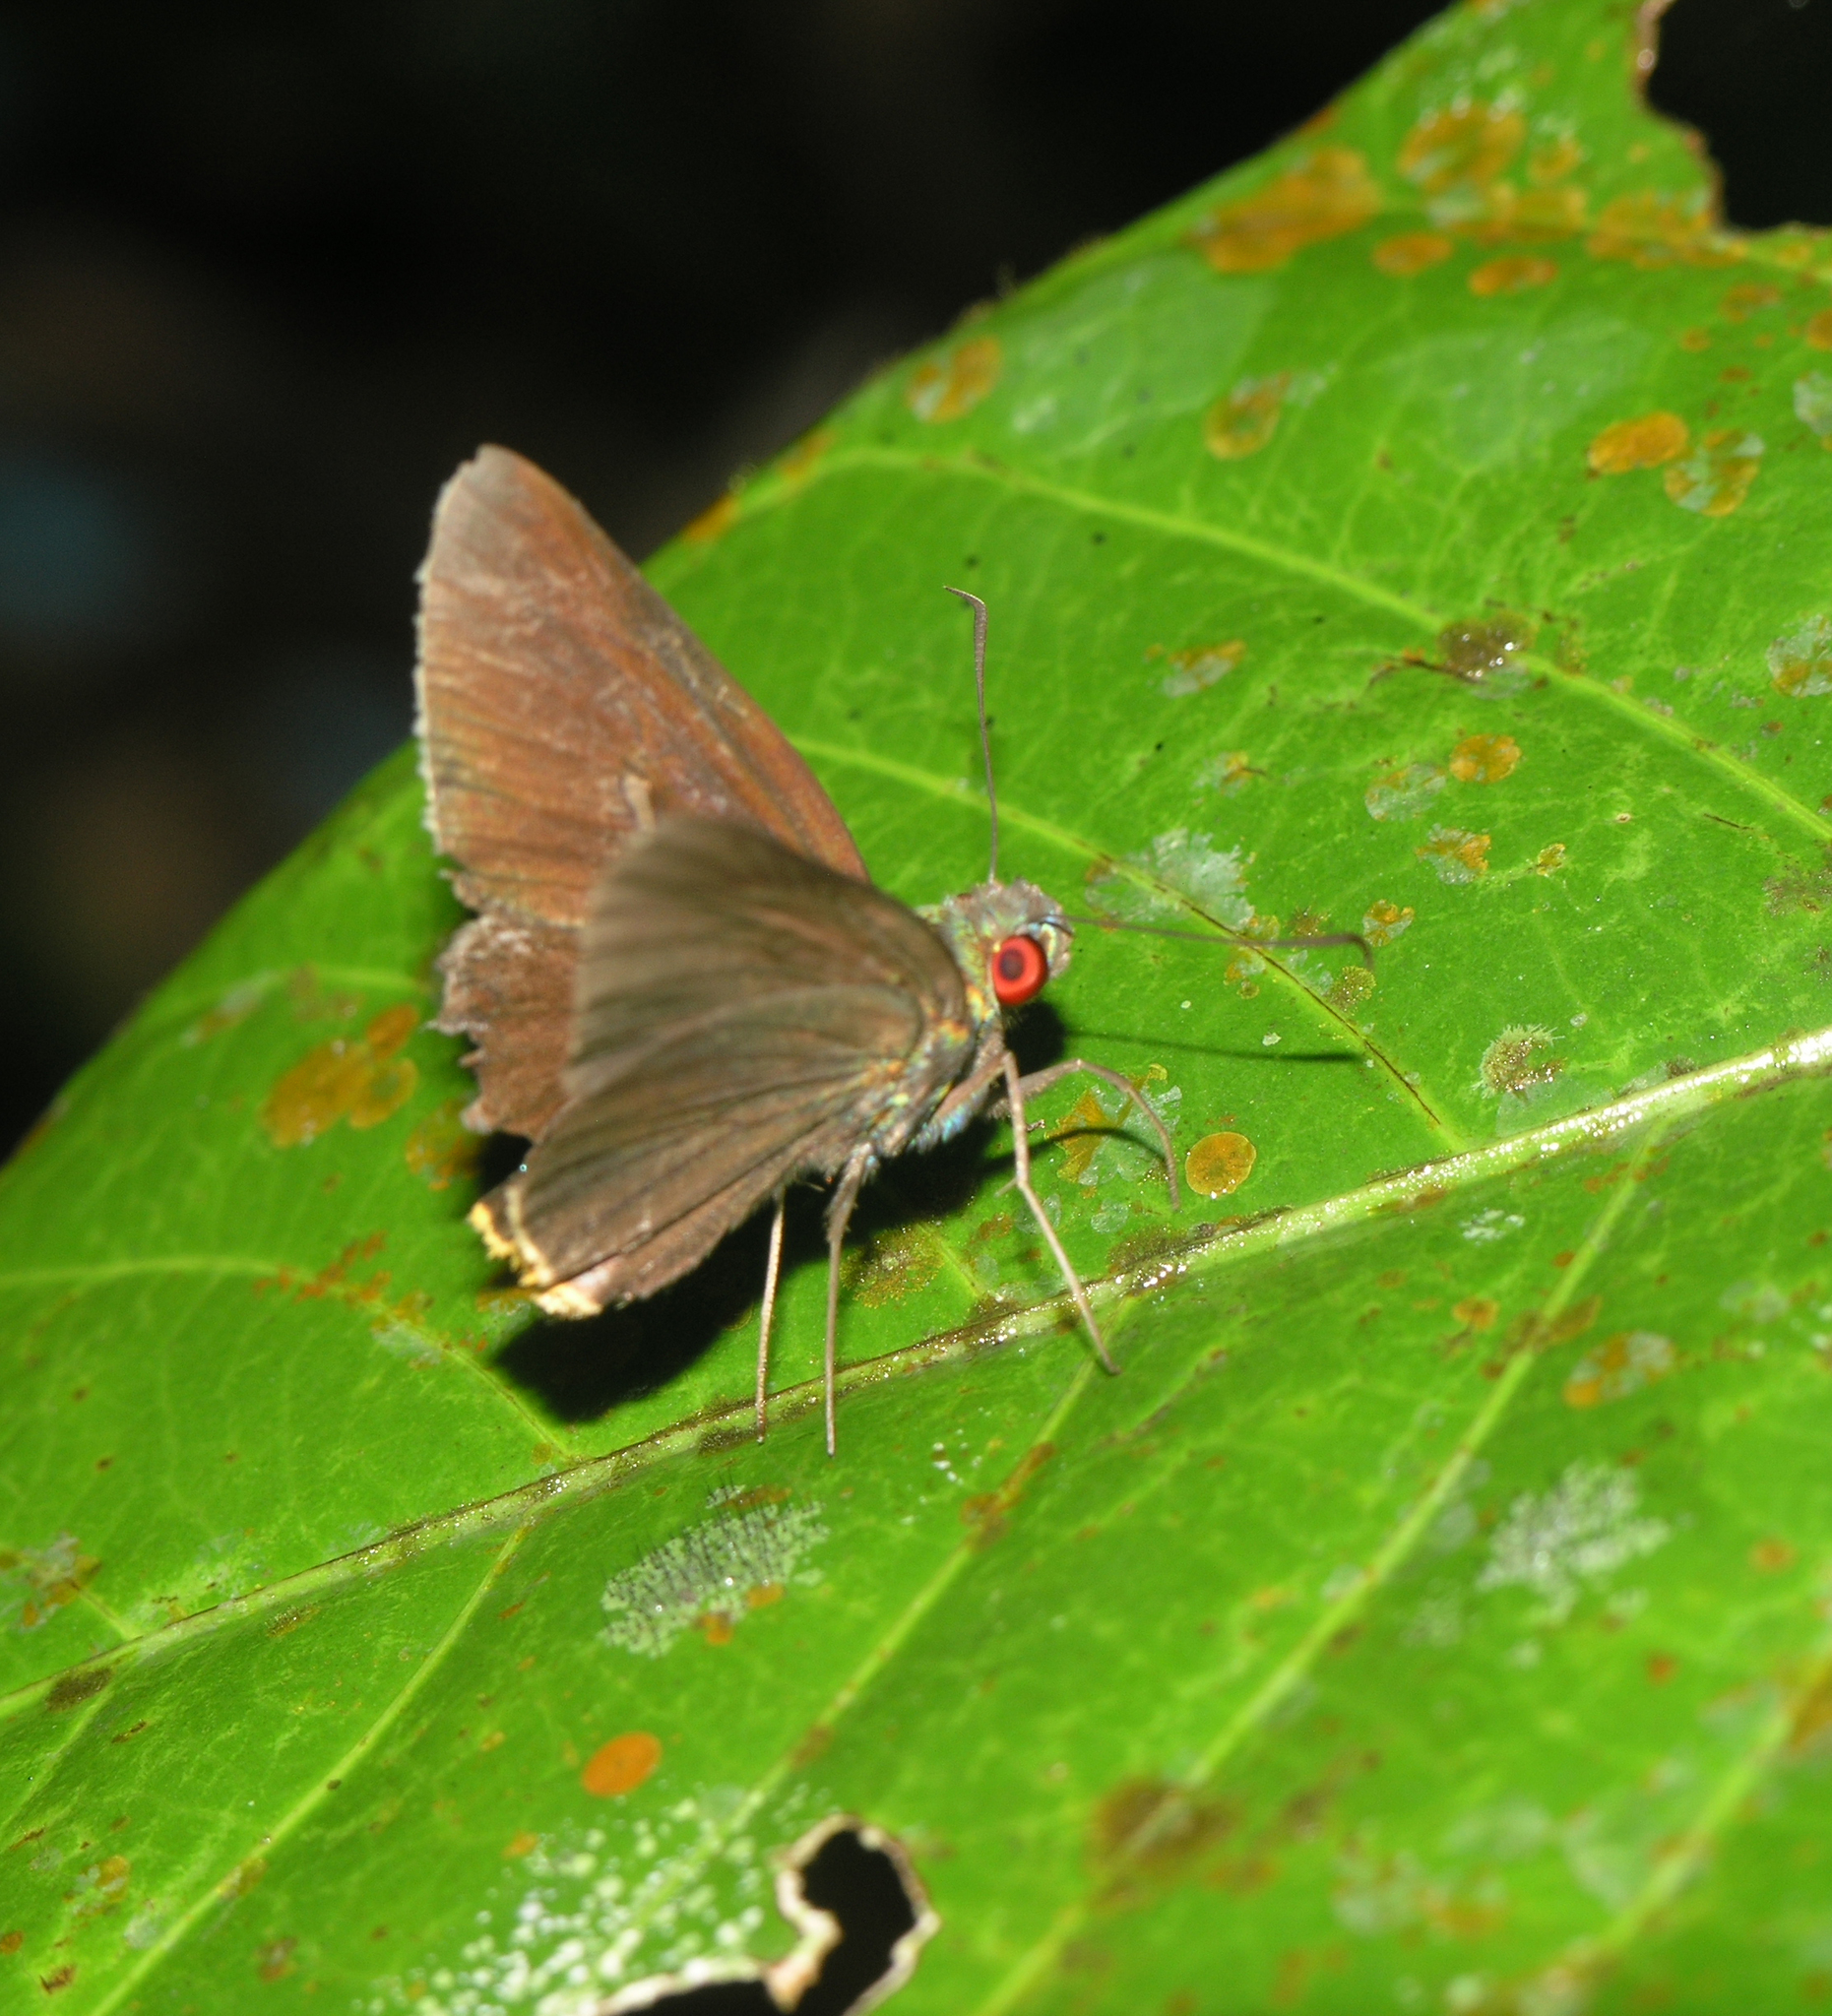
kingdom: Animalia
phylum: Arthropoda
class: Insecta
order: Lepidoptera
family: Hesperiidae
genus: Matapa
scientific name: Matapa sasivarna
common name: Black-veined redeye
